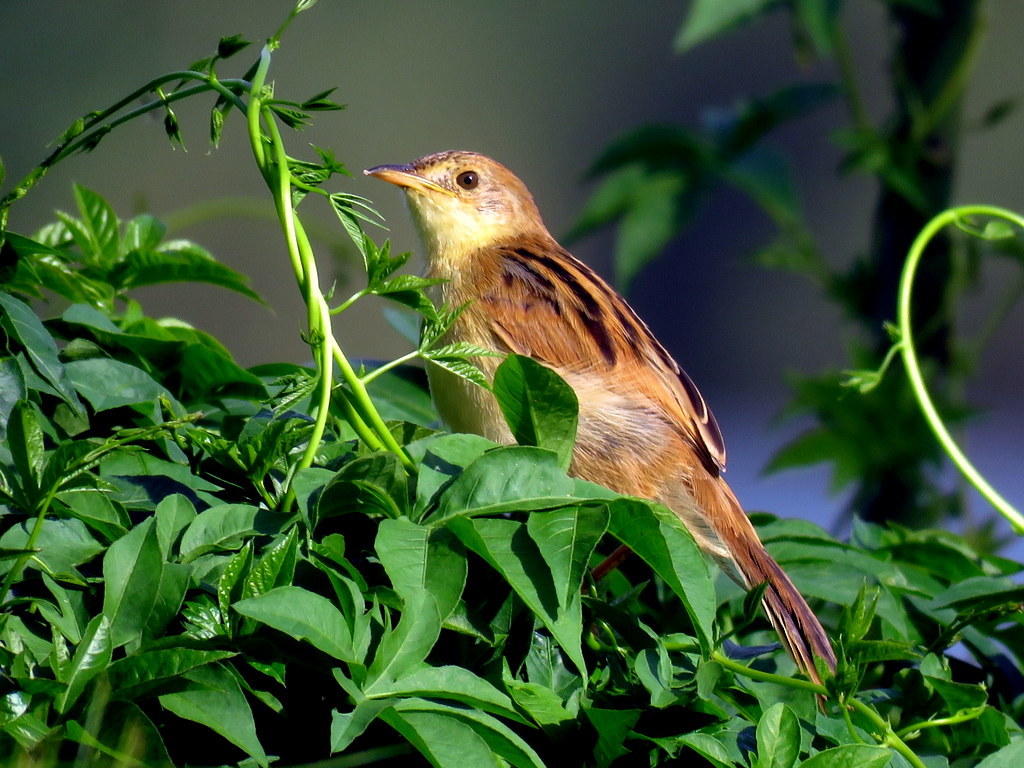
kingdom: Animalia
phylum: Chordata
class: Aves
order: Passeriformes
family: Cisticolidae
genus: Cisticola
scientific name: Cisticola marginatus
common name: Winding cisticola
